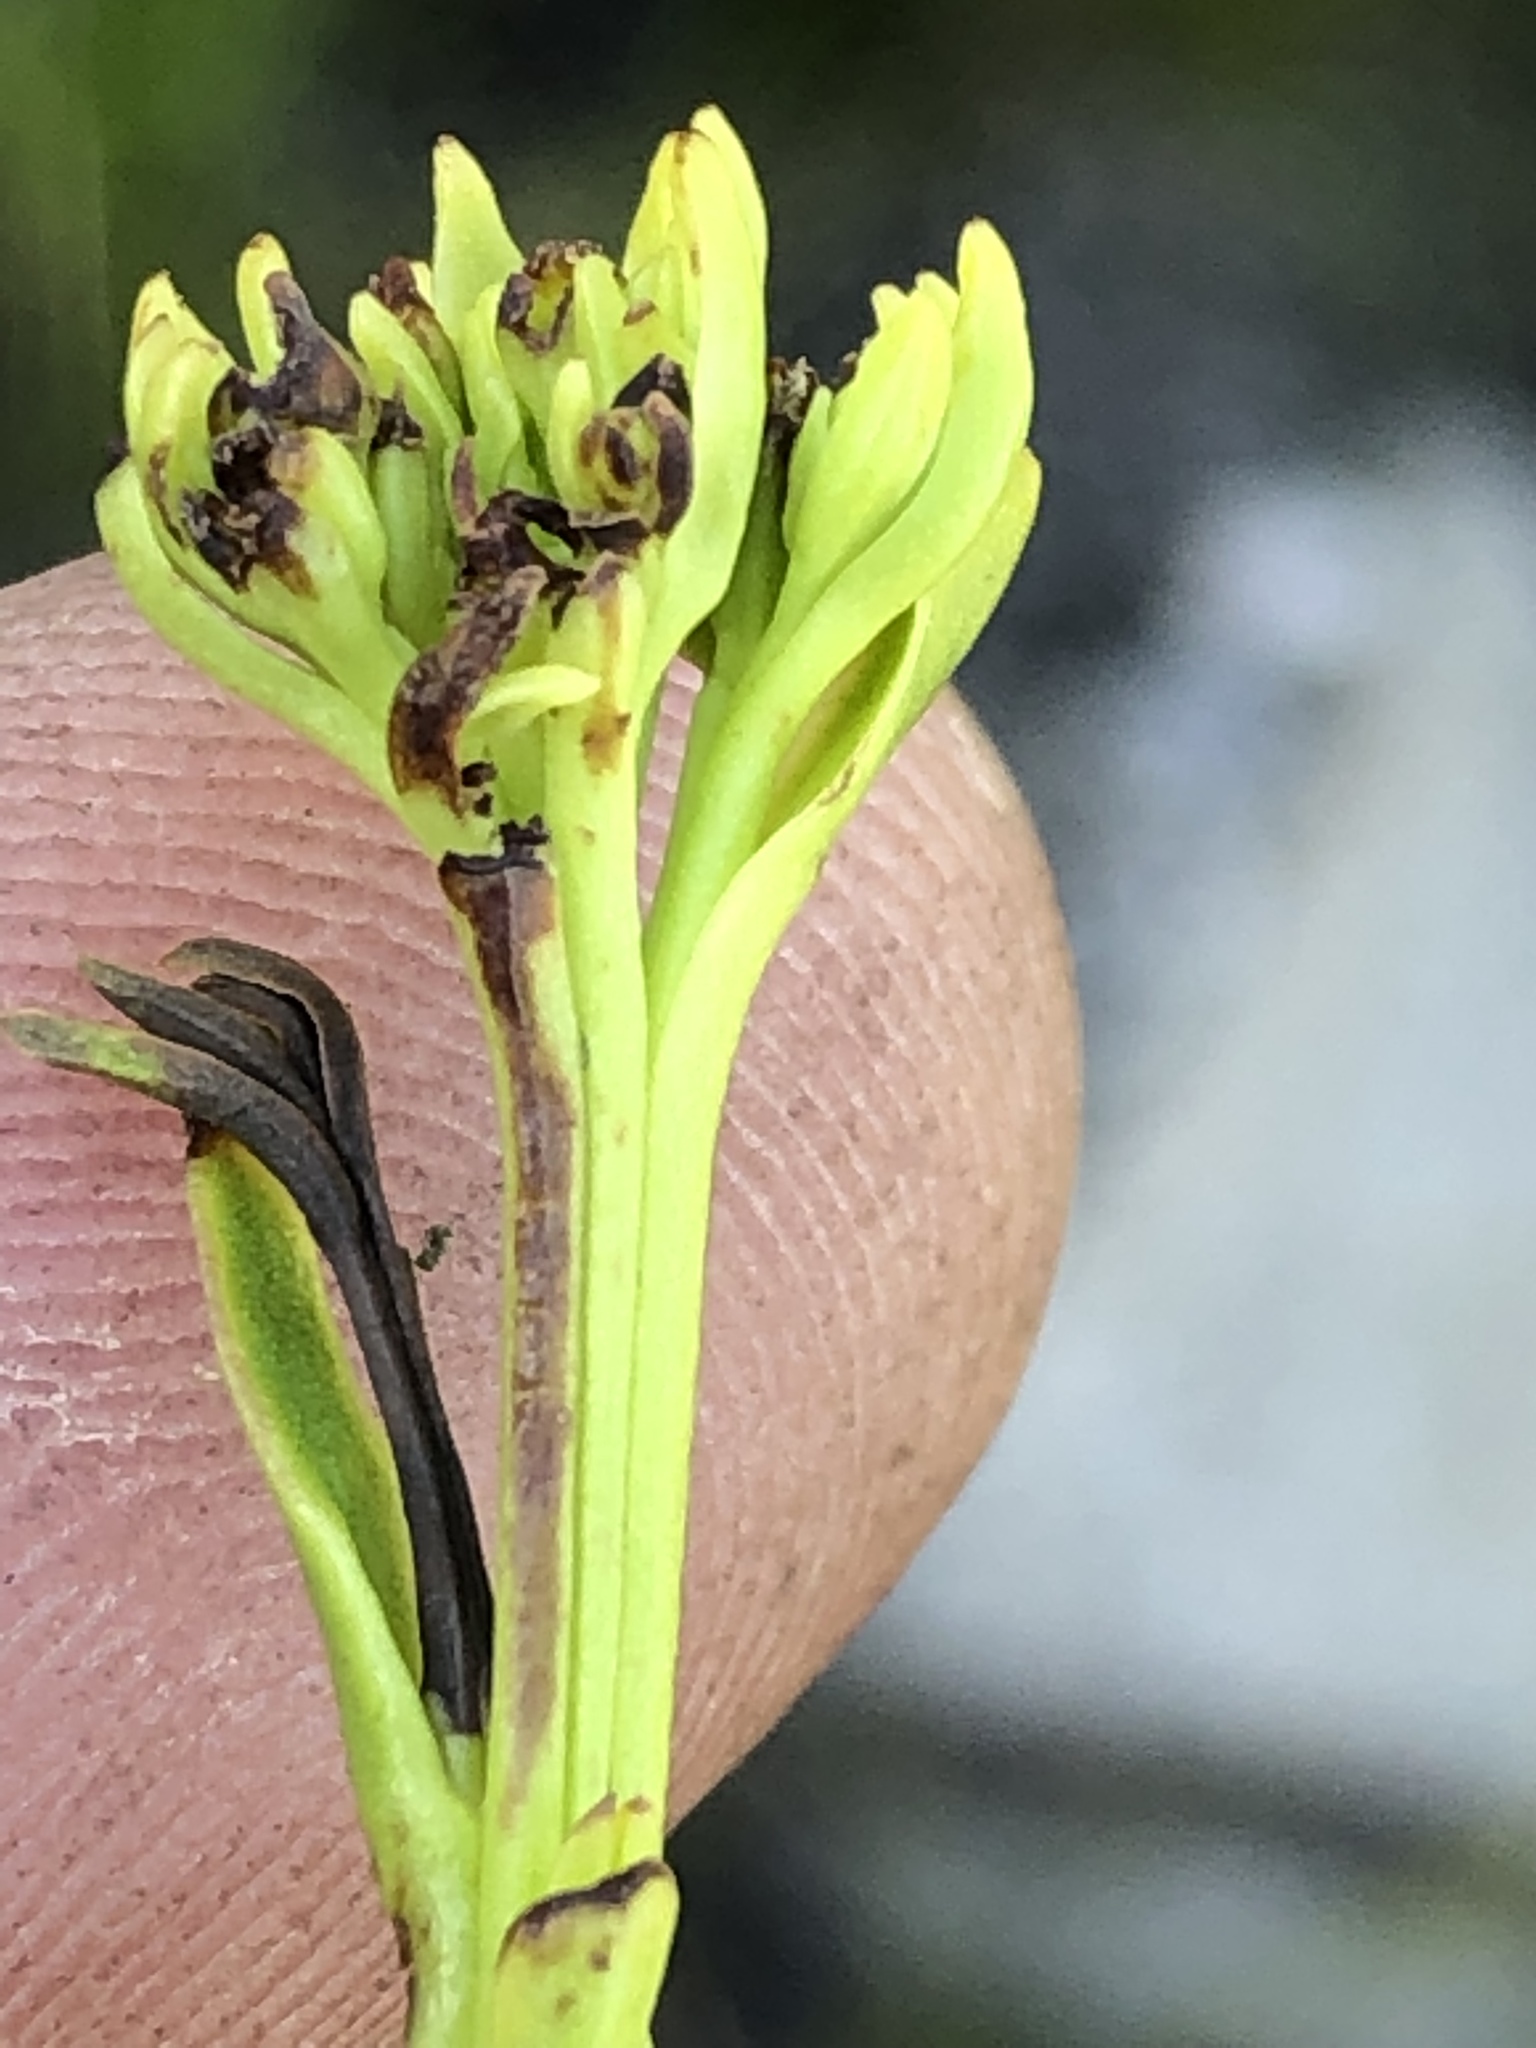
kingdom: Plantae
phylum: Tracheophyta
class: Magnoliopsida
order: Santalales
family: Thesiaceae
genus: Thesium
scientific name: Thesium strictum
